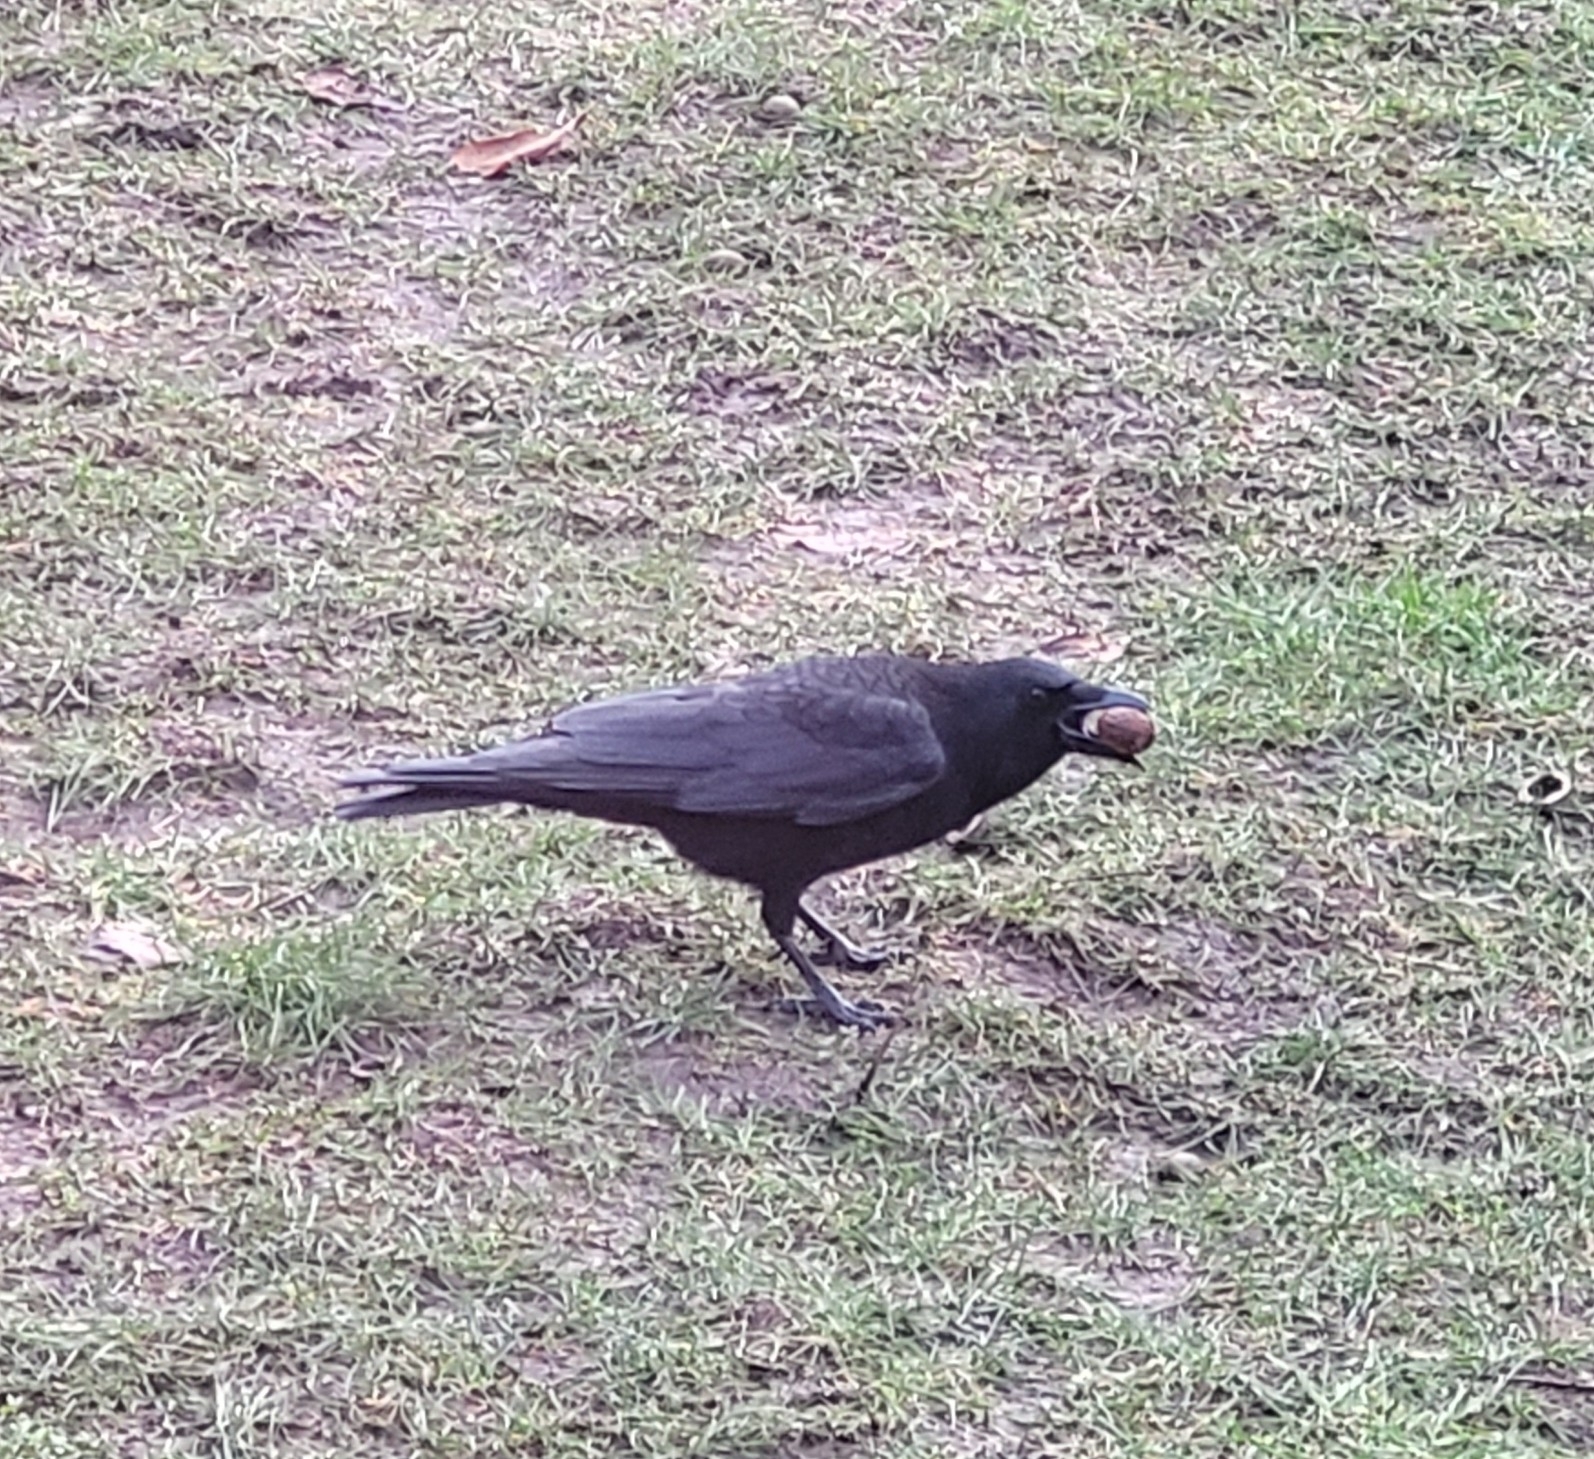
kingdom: Animalia
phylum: Chordata
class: Aves
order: Passeriformes
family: Corvidae
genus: Corvus
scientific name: Corvus corone
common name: Carrion crow
